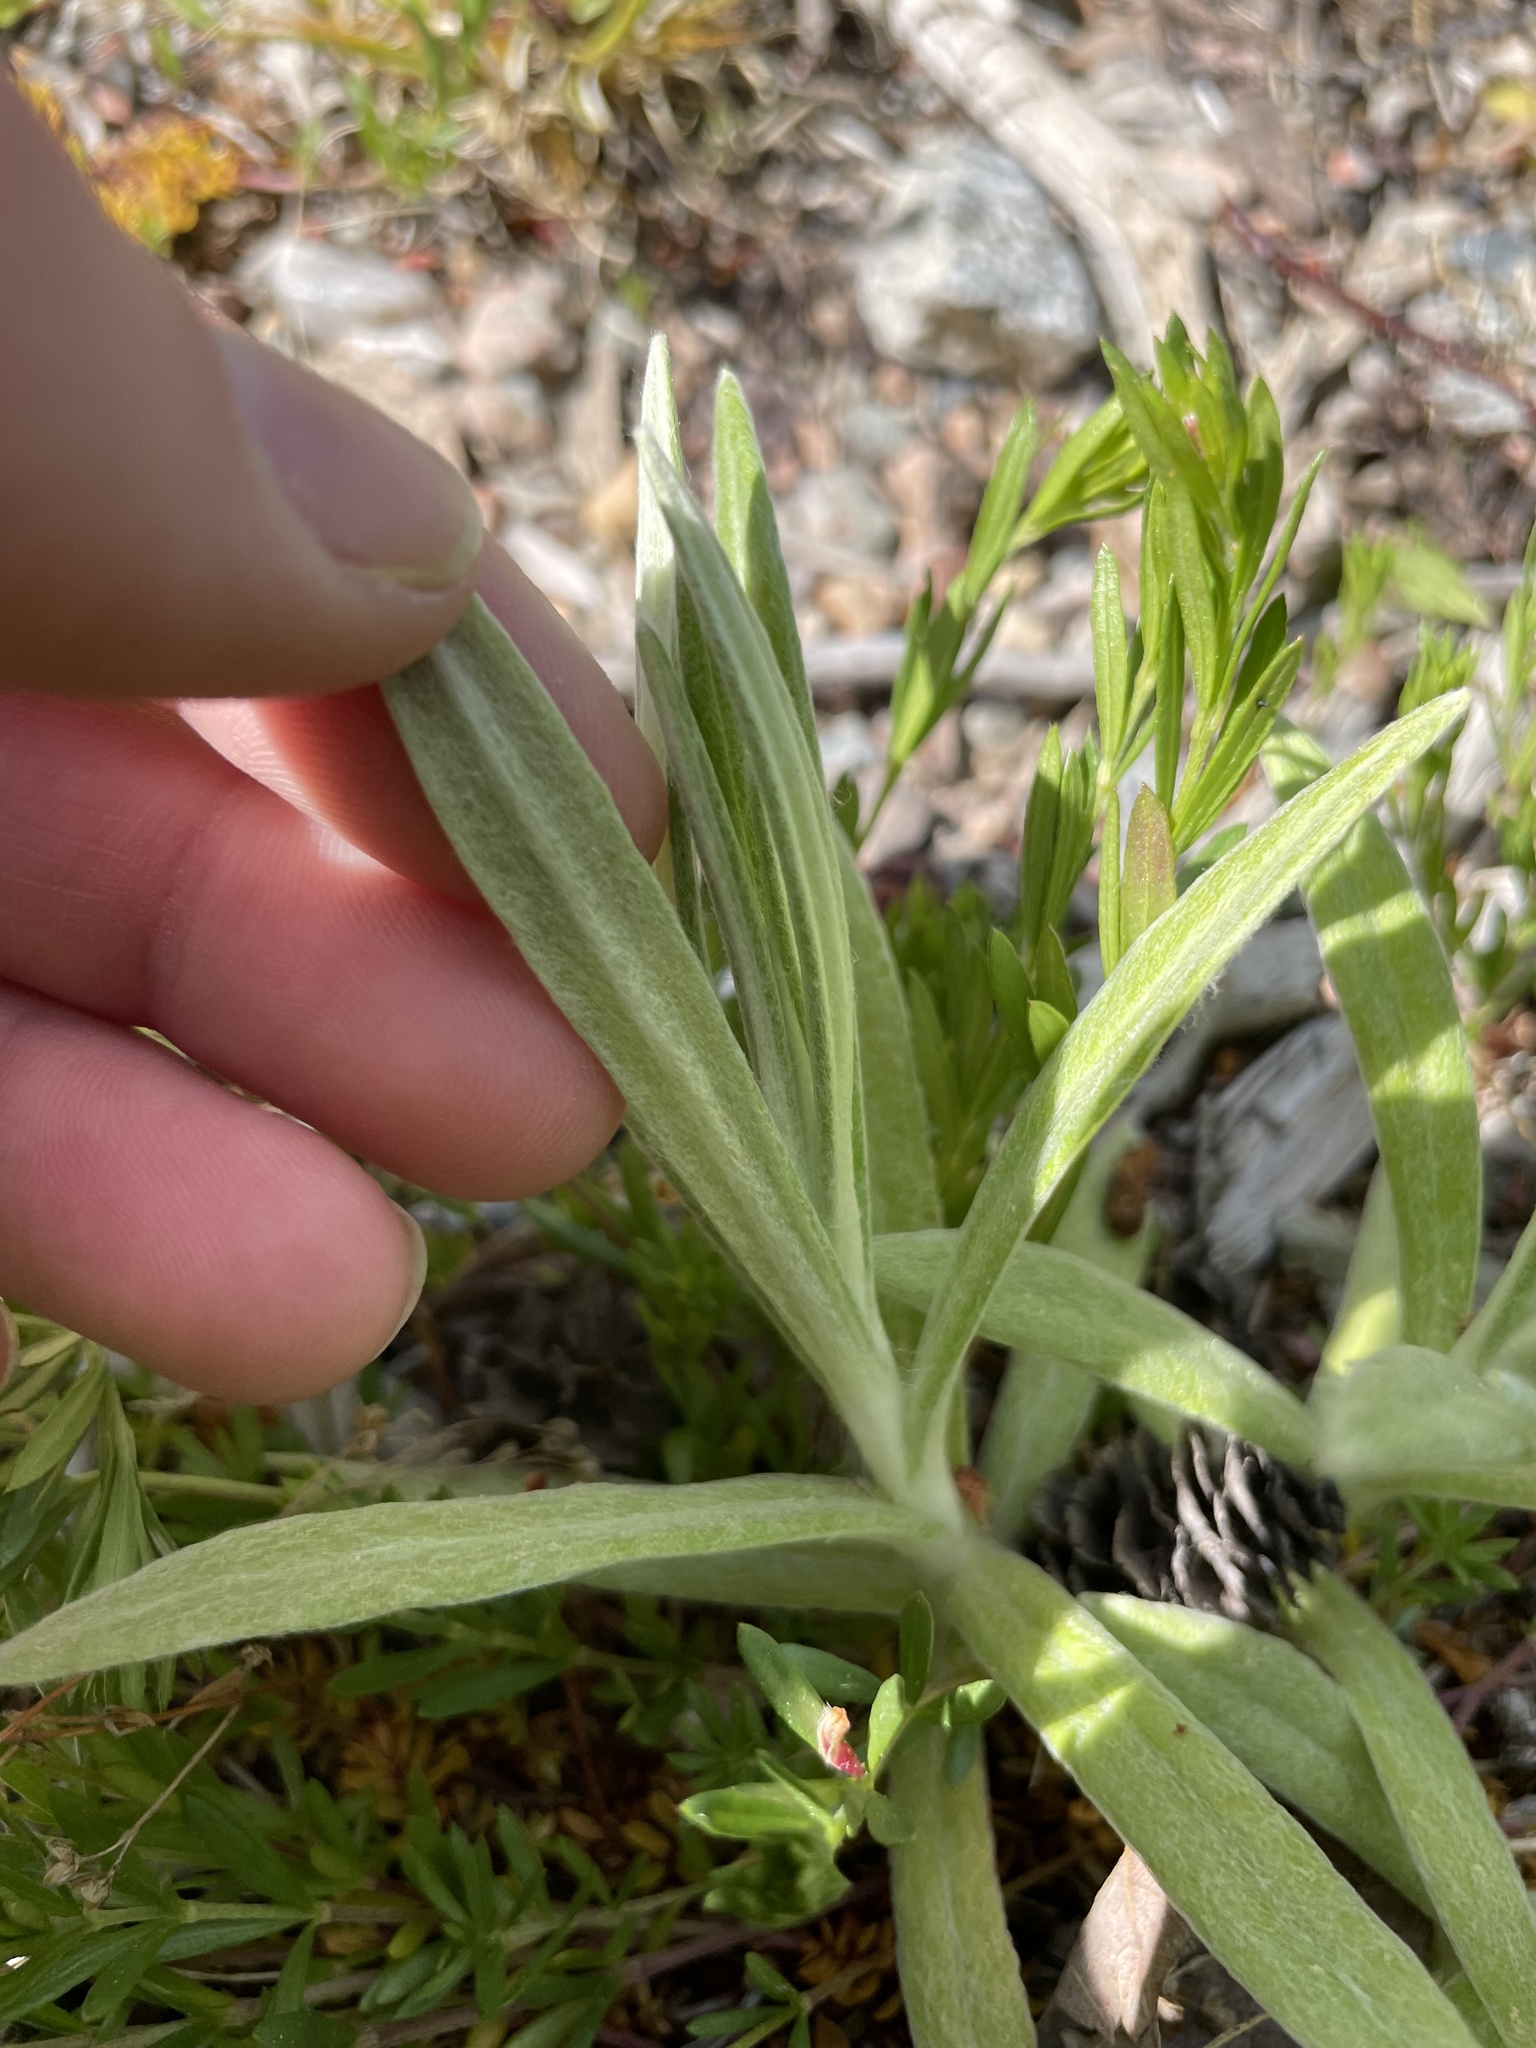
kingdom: Plantae
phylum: Tracheophyta
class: Magnoliopsida
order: Asterales
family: Asteraceae
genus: Anaphalis
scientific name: Anaphalis margaritacea
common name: Pearly everlasting
